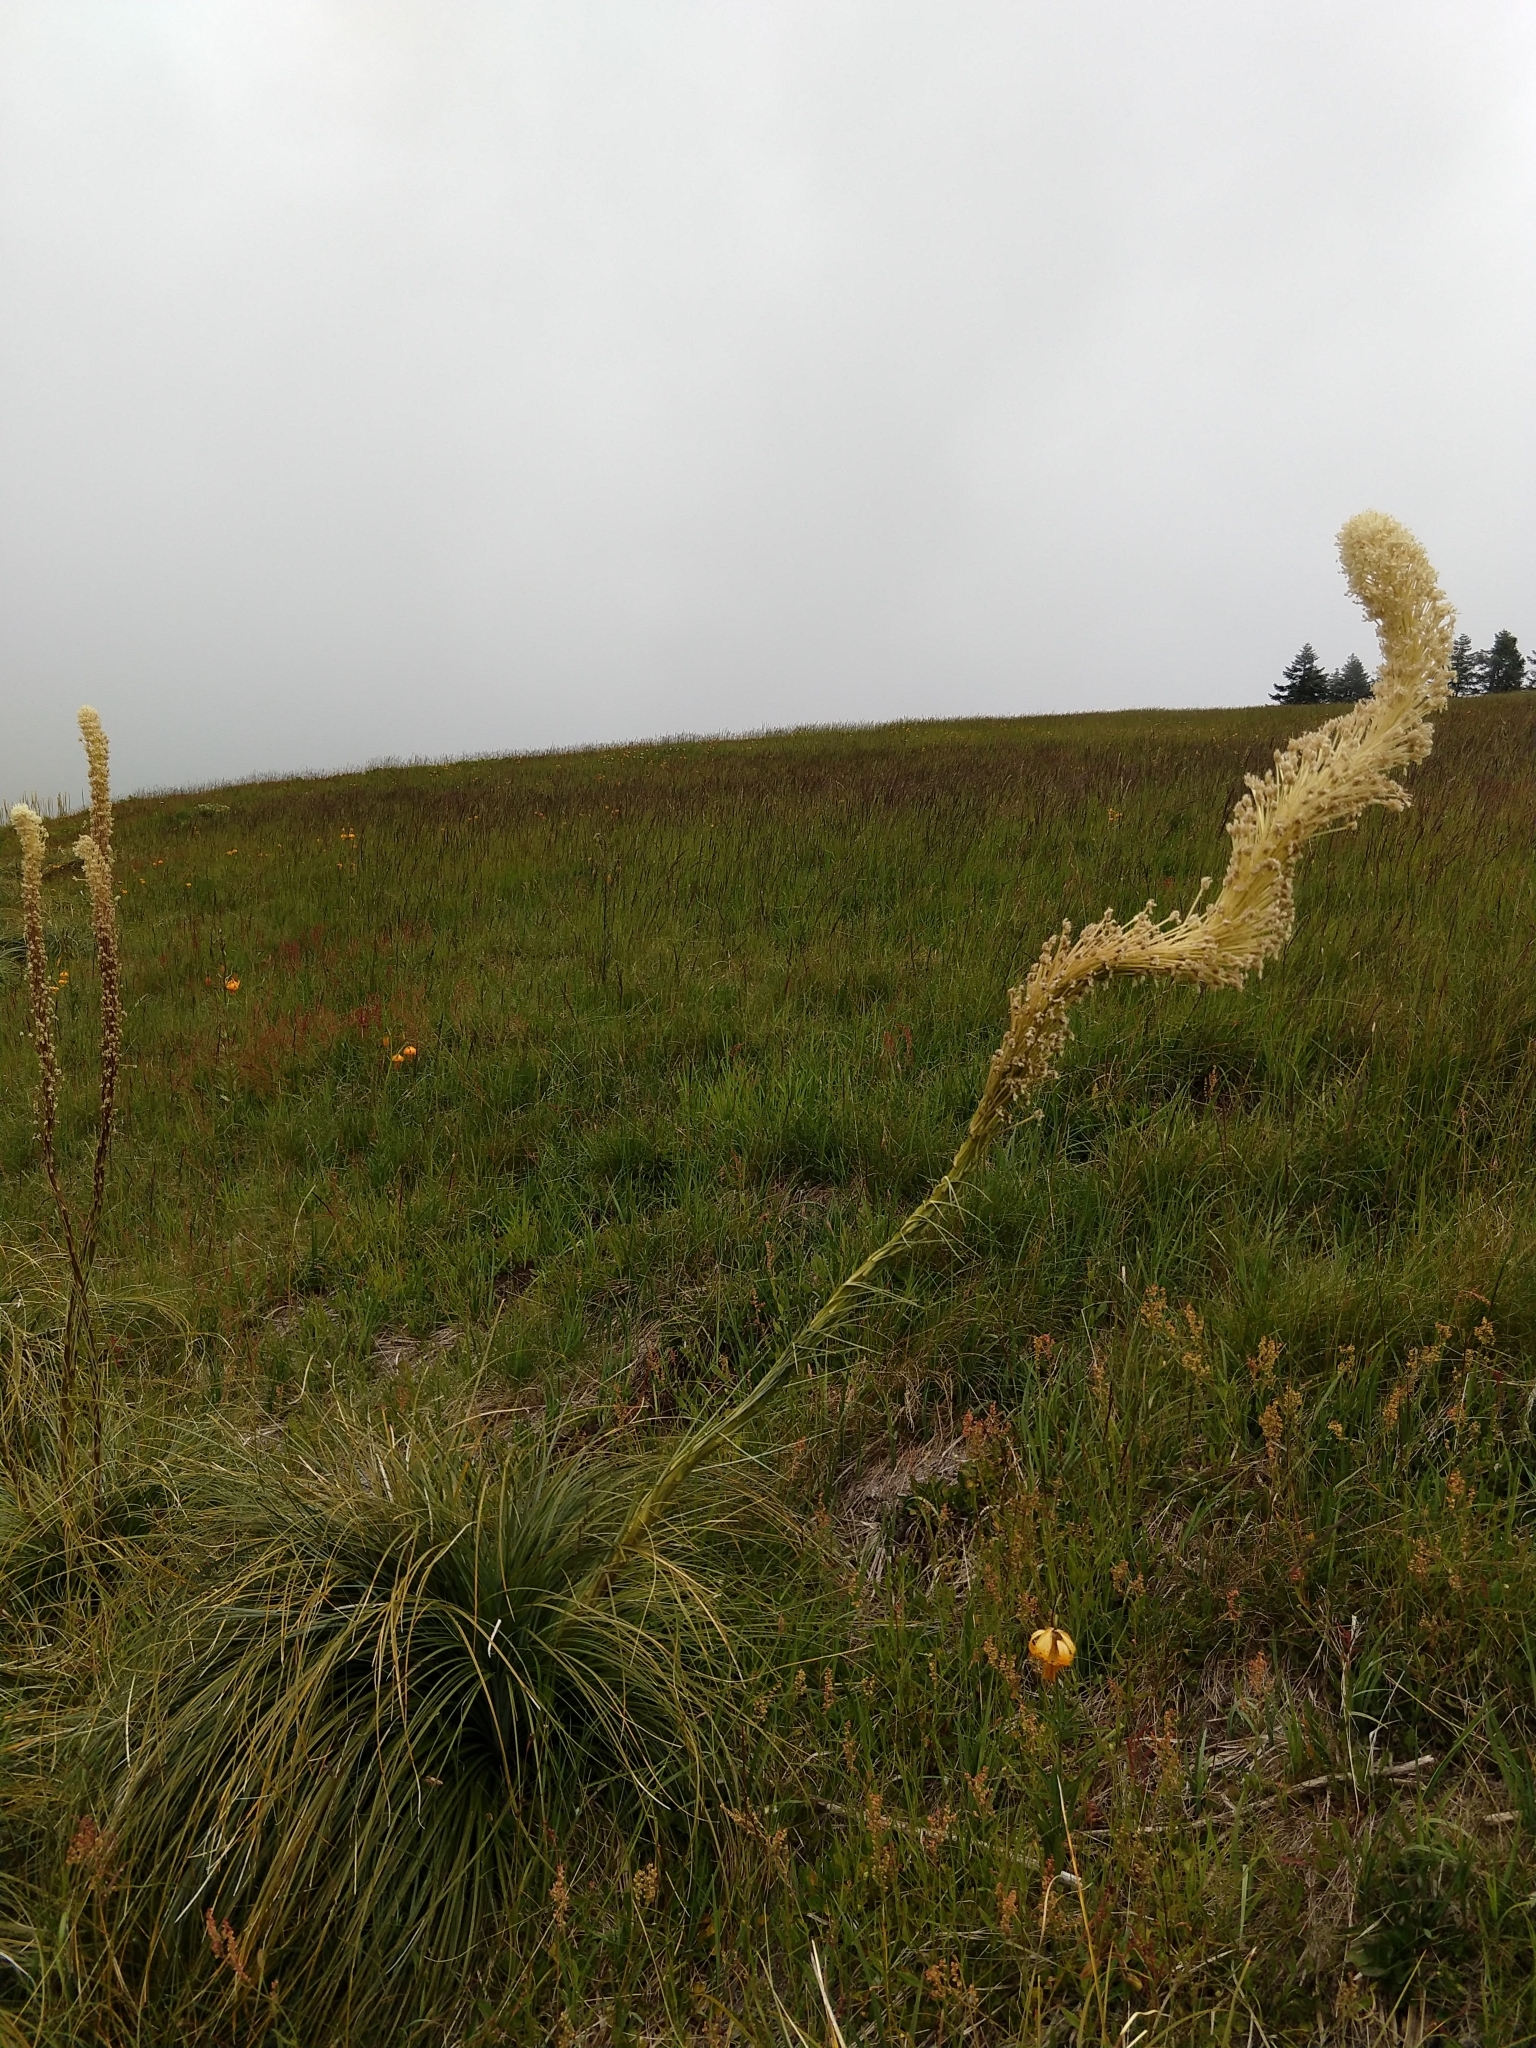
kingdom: Plantae
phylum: Tracheophyta
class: Liliopsida
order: Liliales
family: Melanthiaceae
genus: Xerophyllum
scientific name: Xerophyllum tenax
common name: Bear-grass
